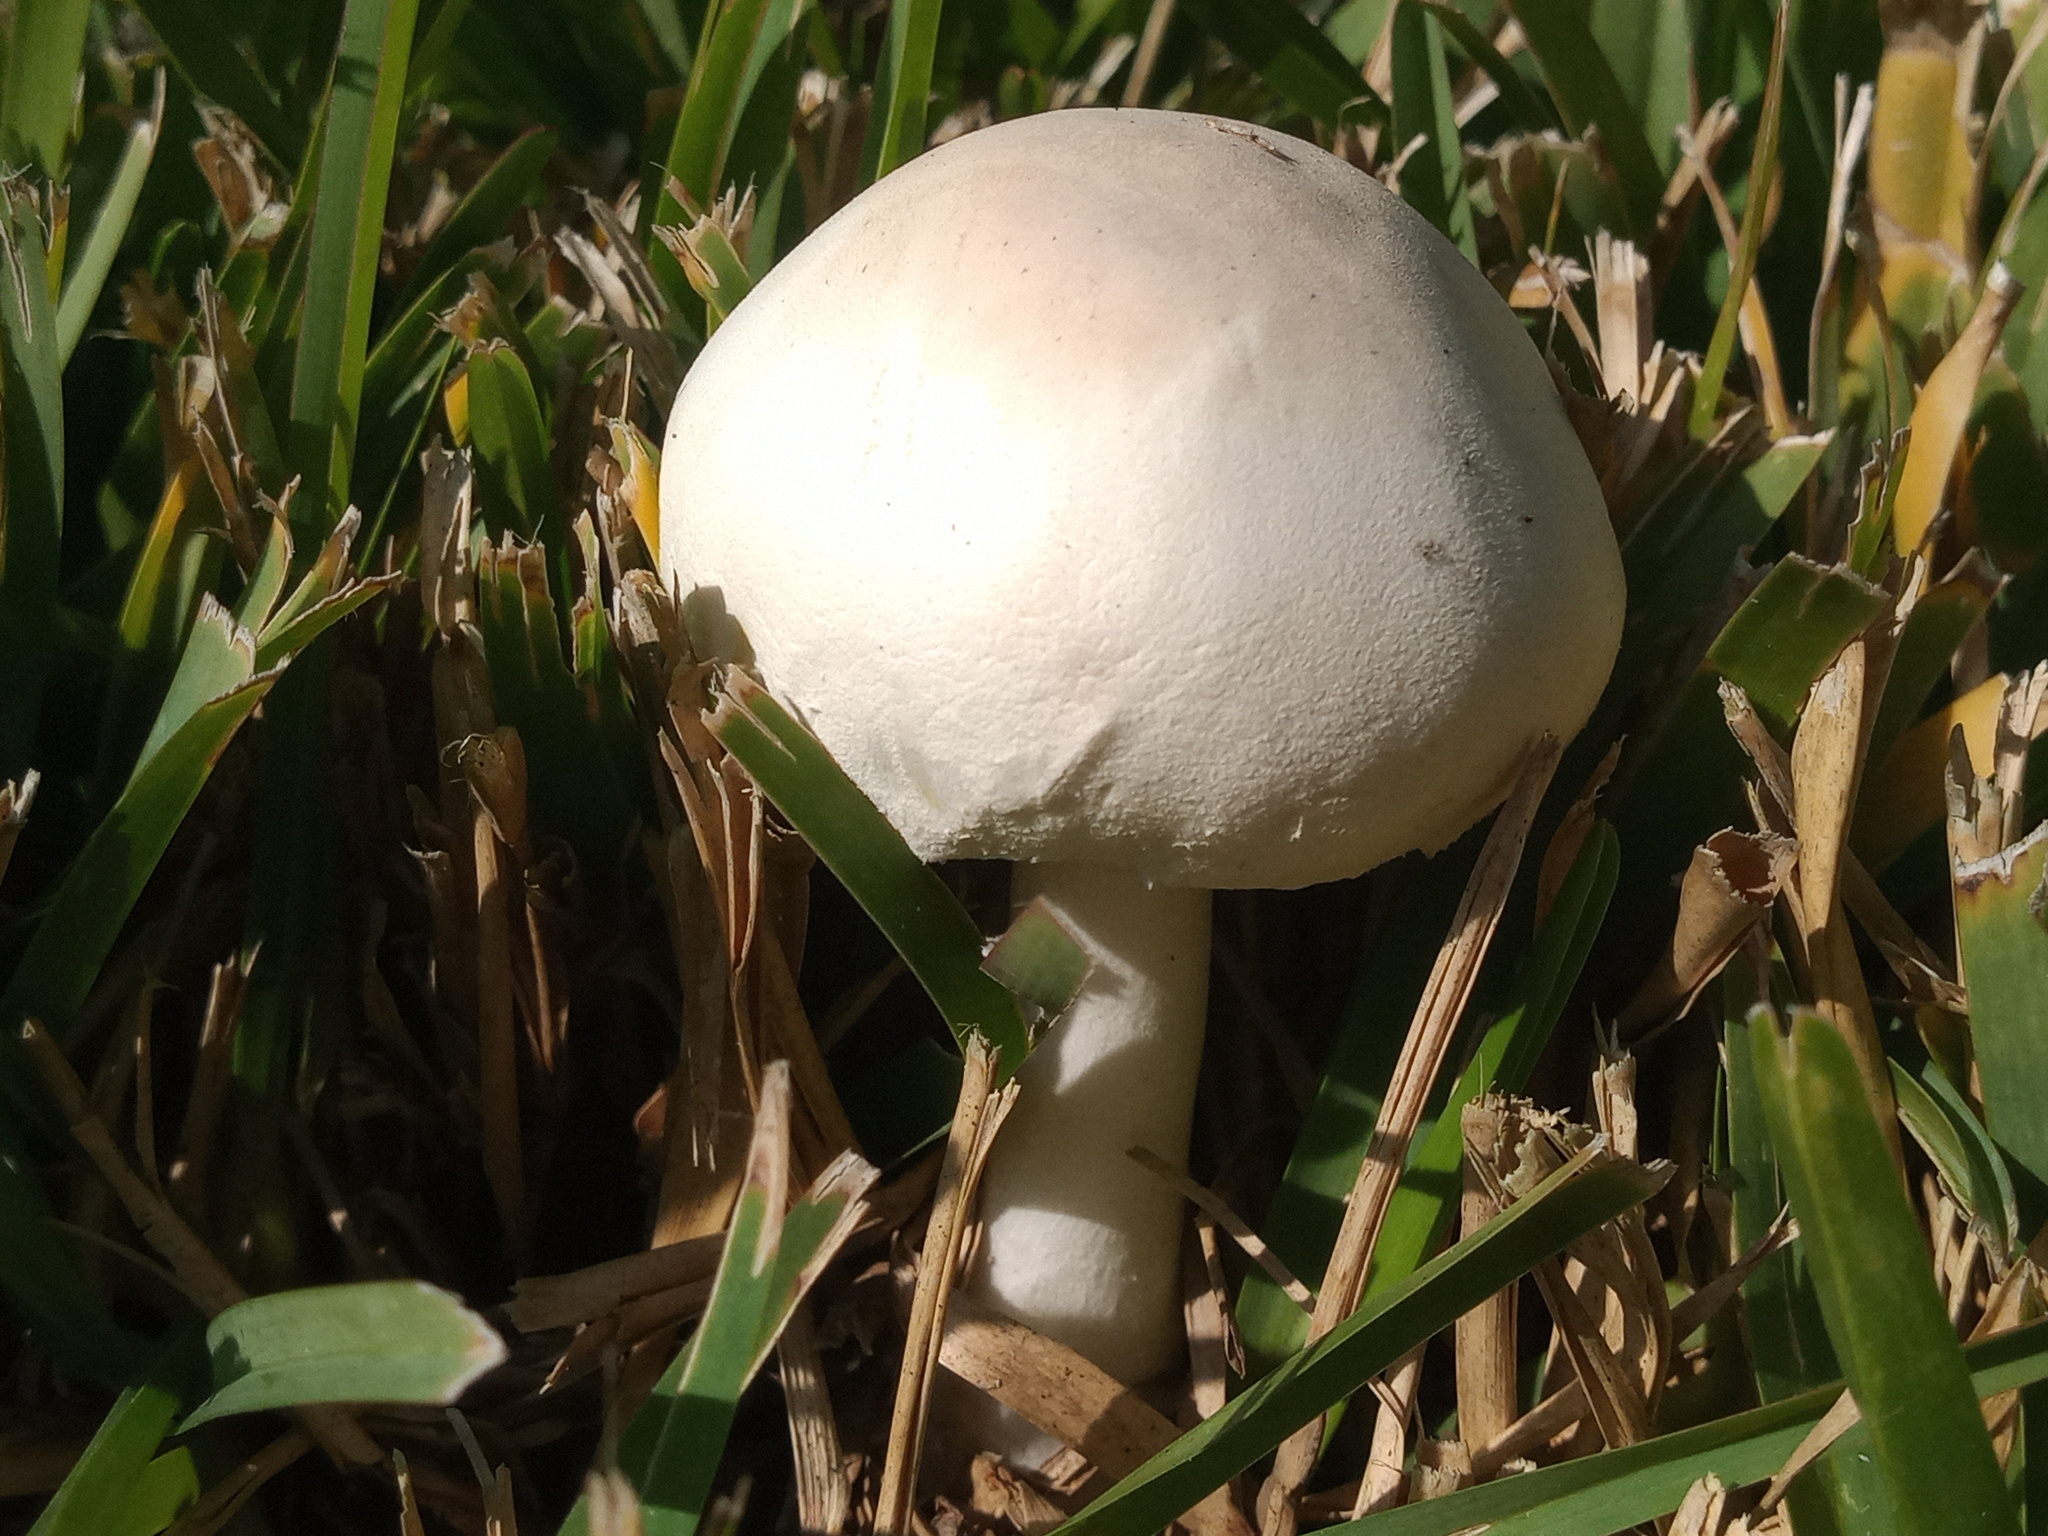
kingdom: Fungi
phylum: Basidiomycota
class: Agaricomycetes
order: Agaricales
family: Agaricaceae
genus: Leucoagaricus
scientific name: Leucoagaricus leucothites
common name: White dapperling
